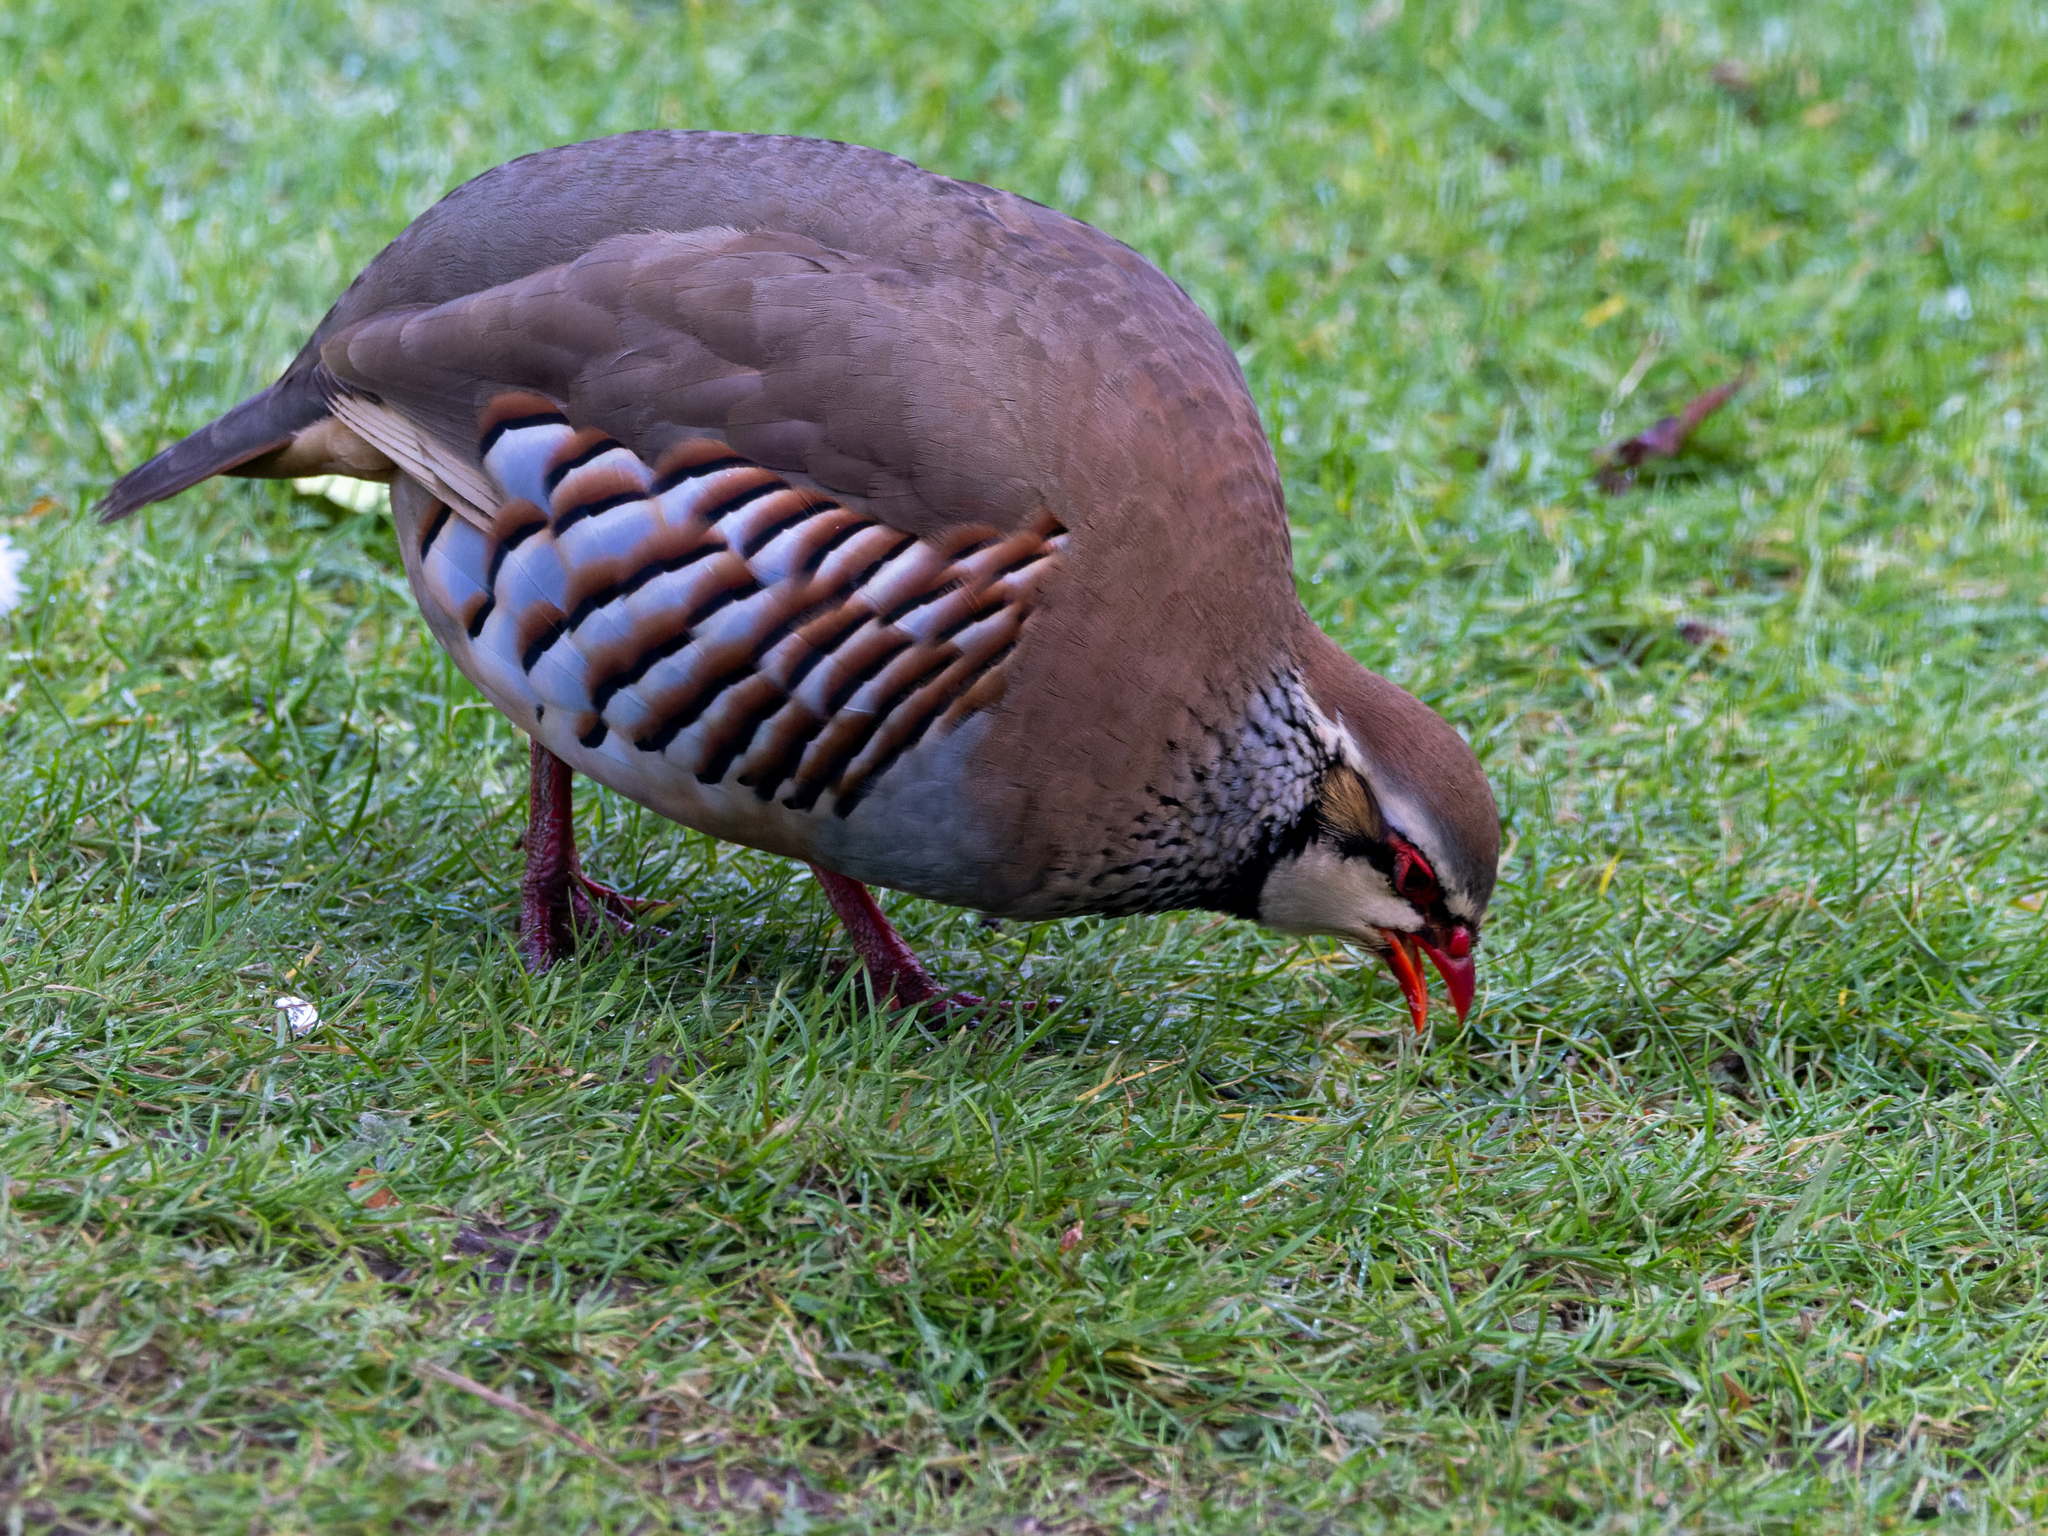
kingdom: Animalia
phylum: Chordata
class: Aves
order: Galliformes
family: Phasianidae
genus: Alectoris
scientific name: Alectoris rufa
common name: Red-legged partridge
